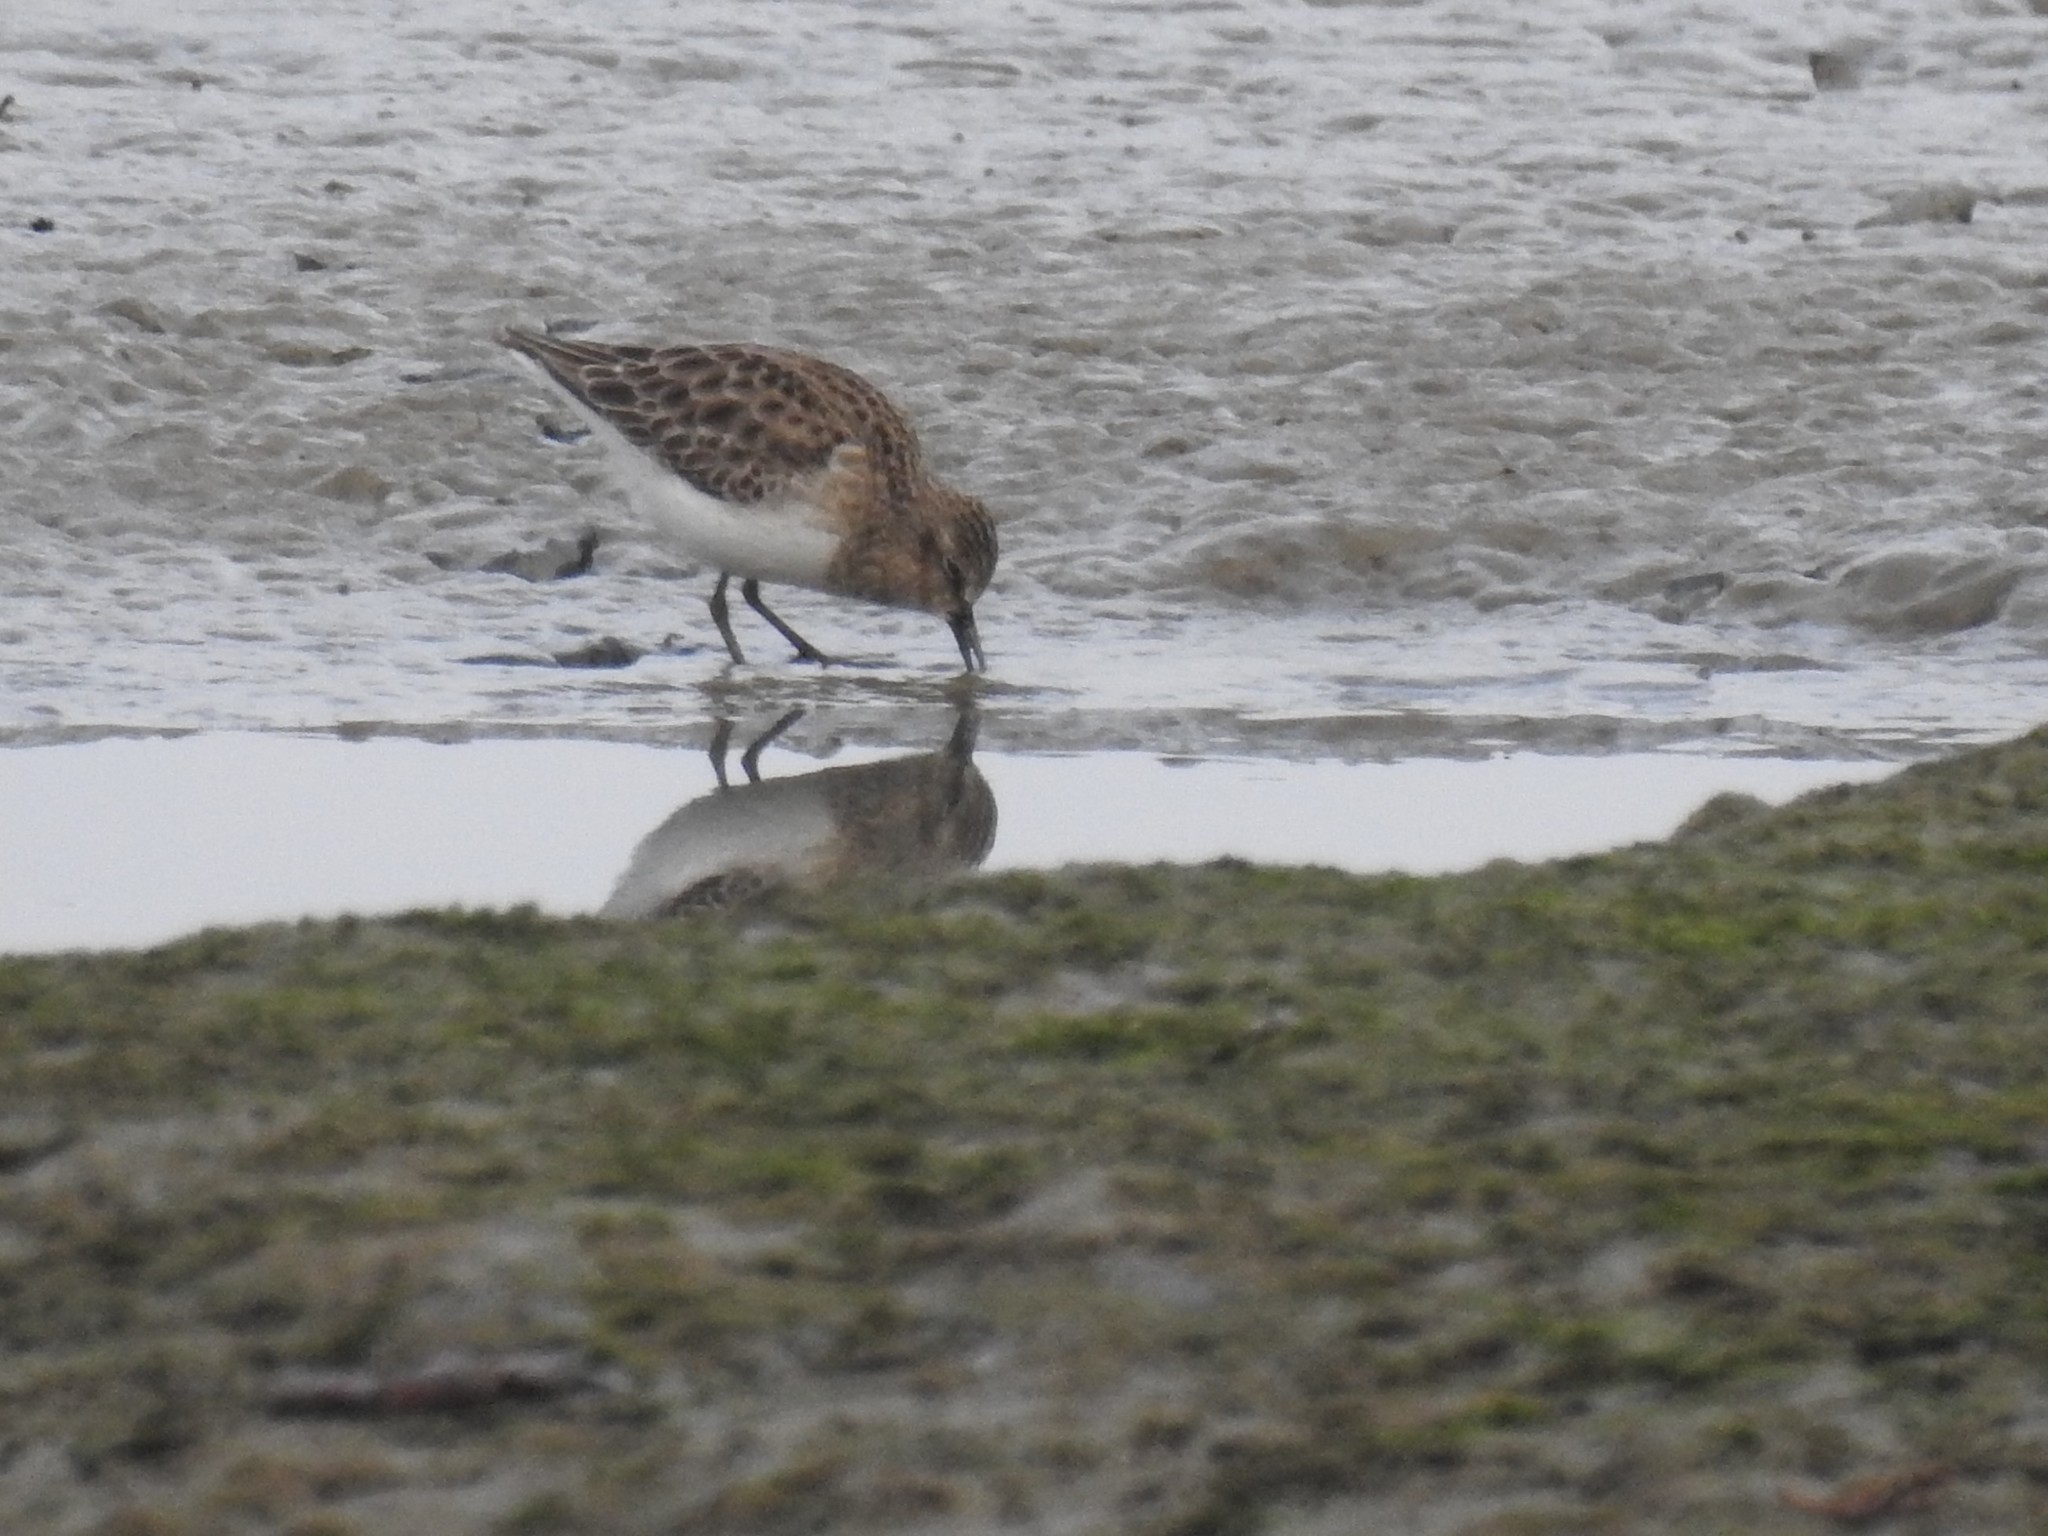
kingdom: Animalia
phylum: Chordata
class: Aves
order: Charadriiformes
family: Scolopacidae
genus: Calidris
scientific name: Calidris minutilla
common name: Least sandpiper
